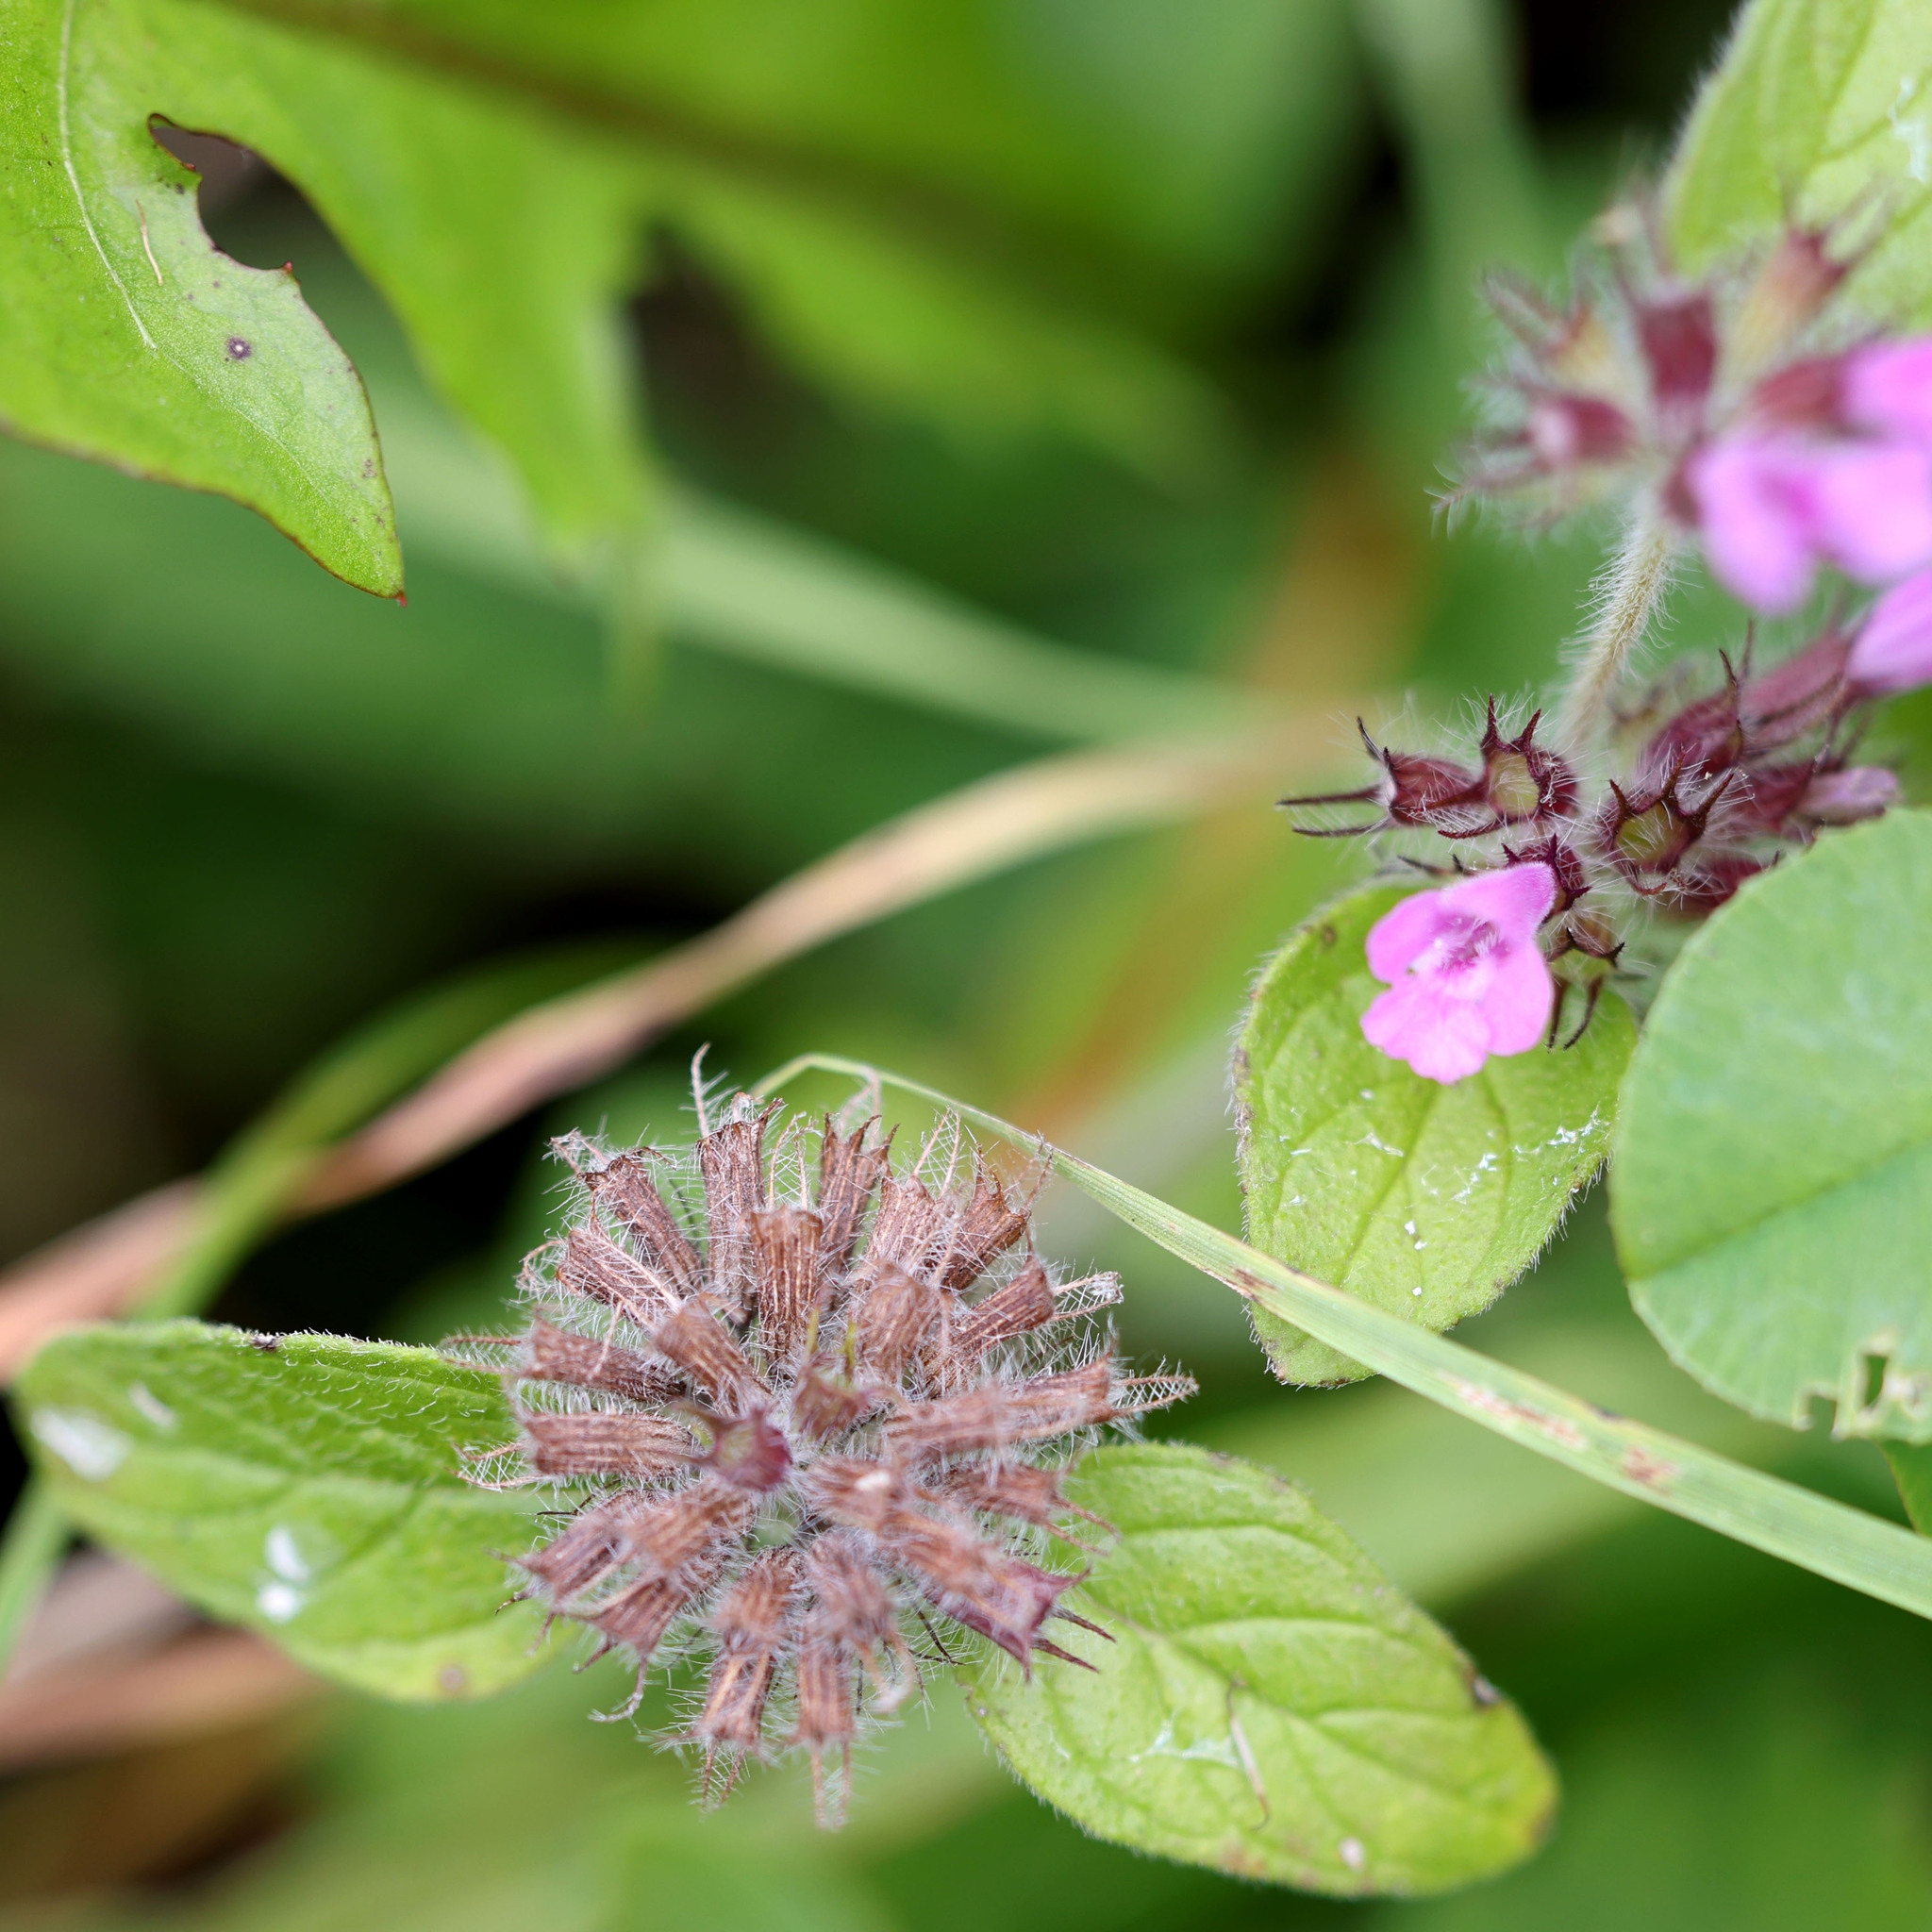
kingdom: Plantae
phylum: Tracheophyta
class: Magnoliopsida
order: Lamiales
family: Lamiaceae
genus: Clinopodium
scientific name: Clinopodium vulgare
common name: Wild basil
